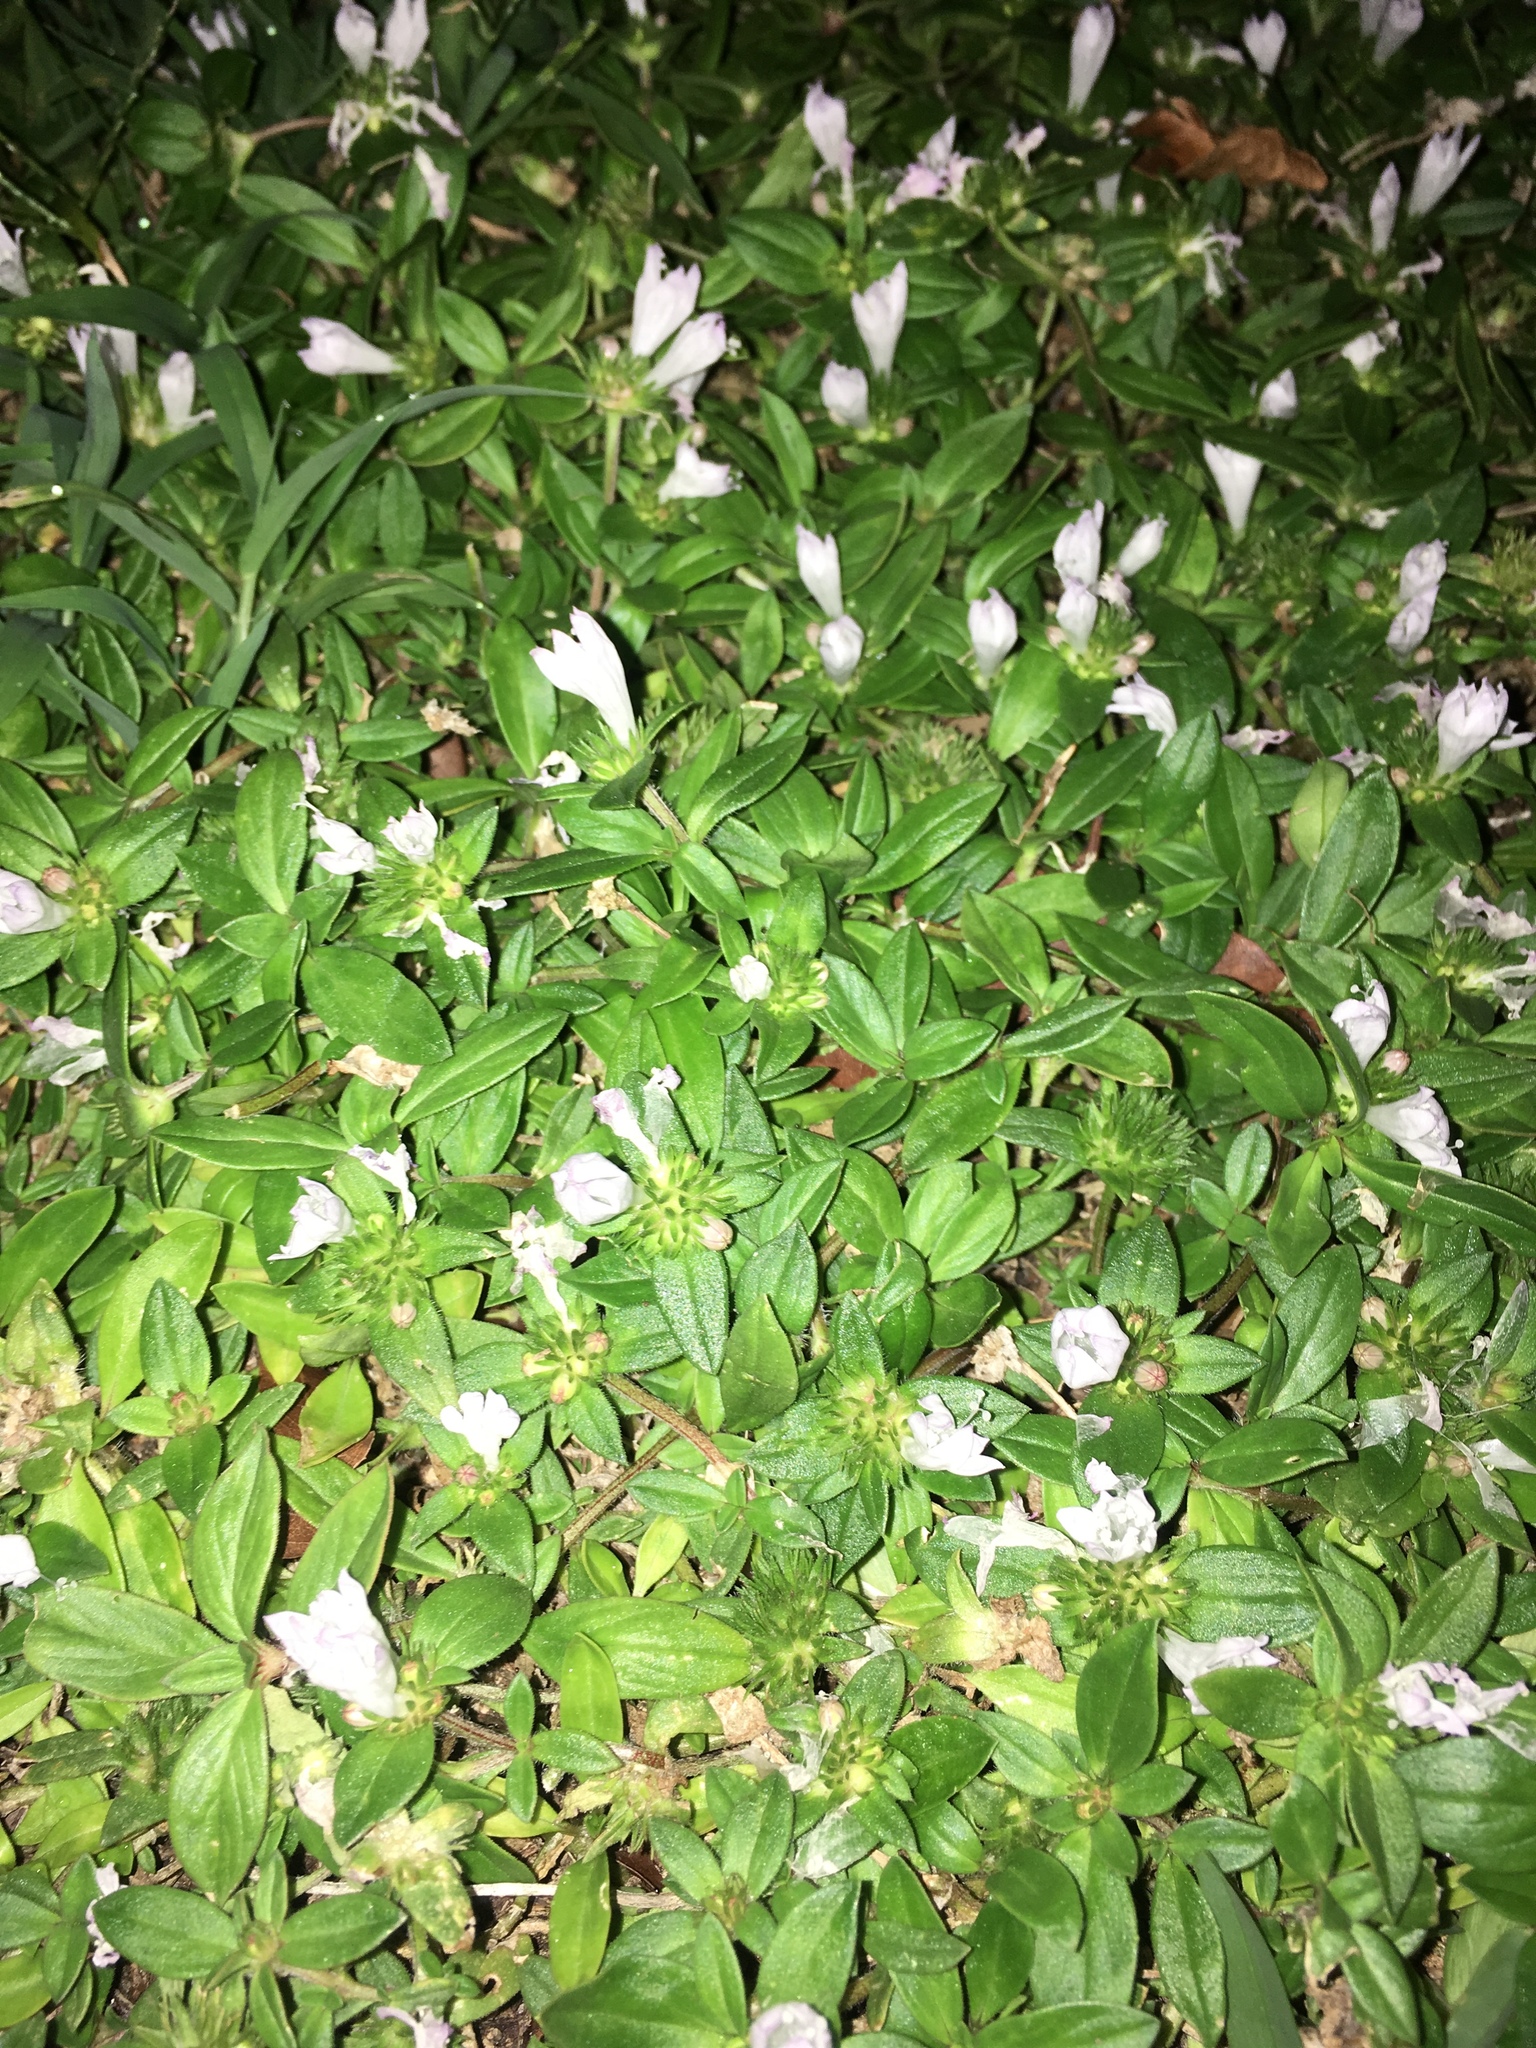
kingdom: Plantae
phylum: Tracheophyta
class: Magnoliopsida
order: Gentianales
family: Rubiaceae
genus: Richardia
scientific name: Richardia grandiflora
